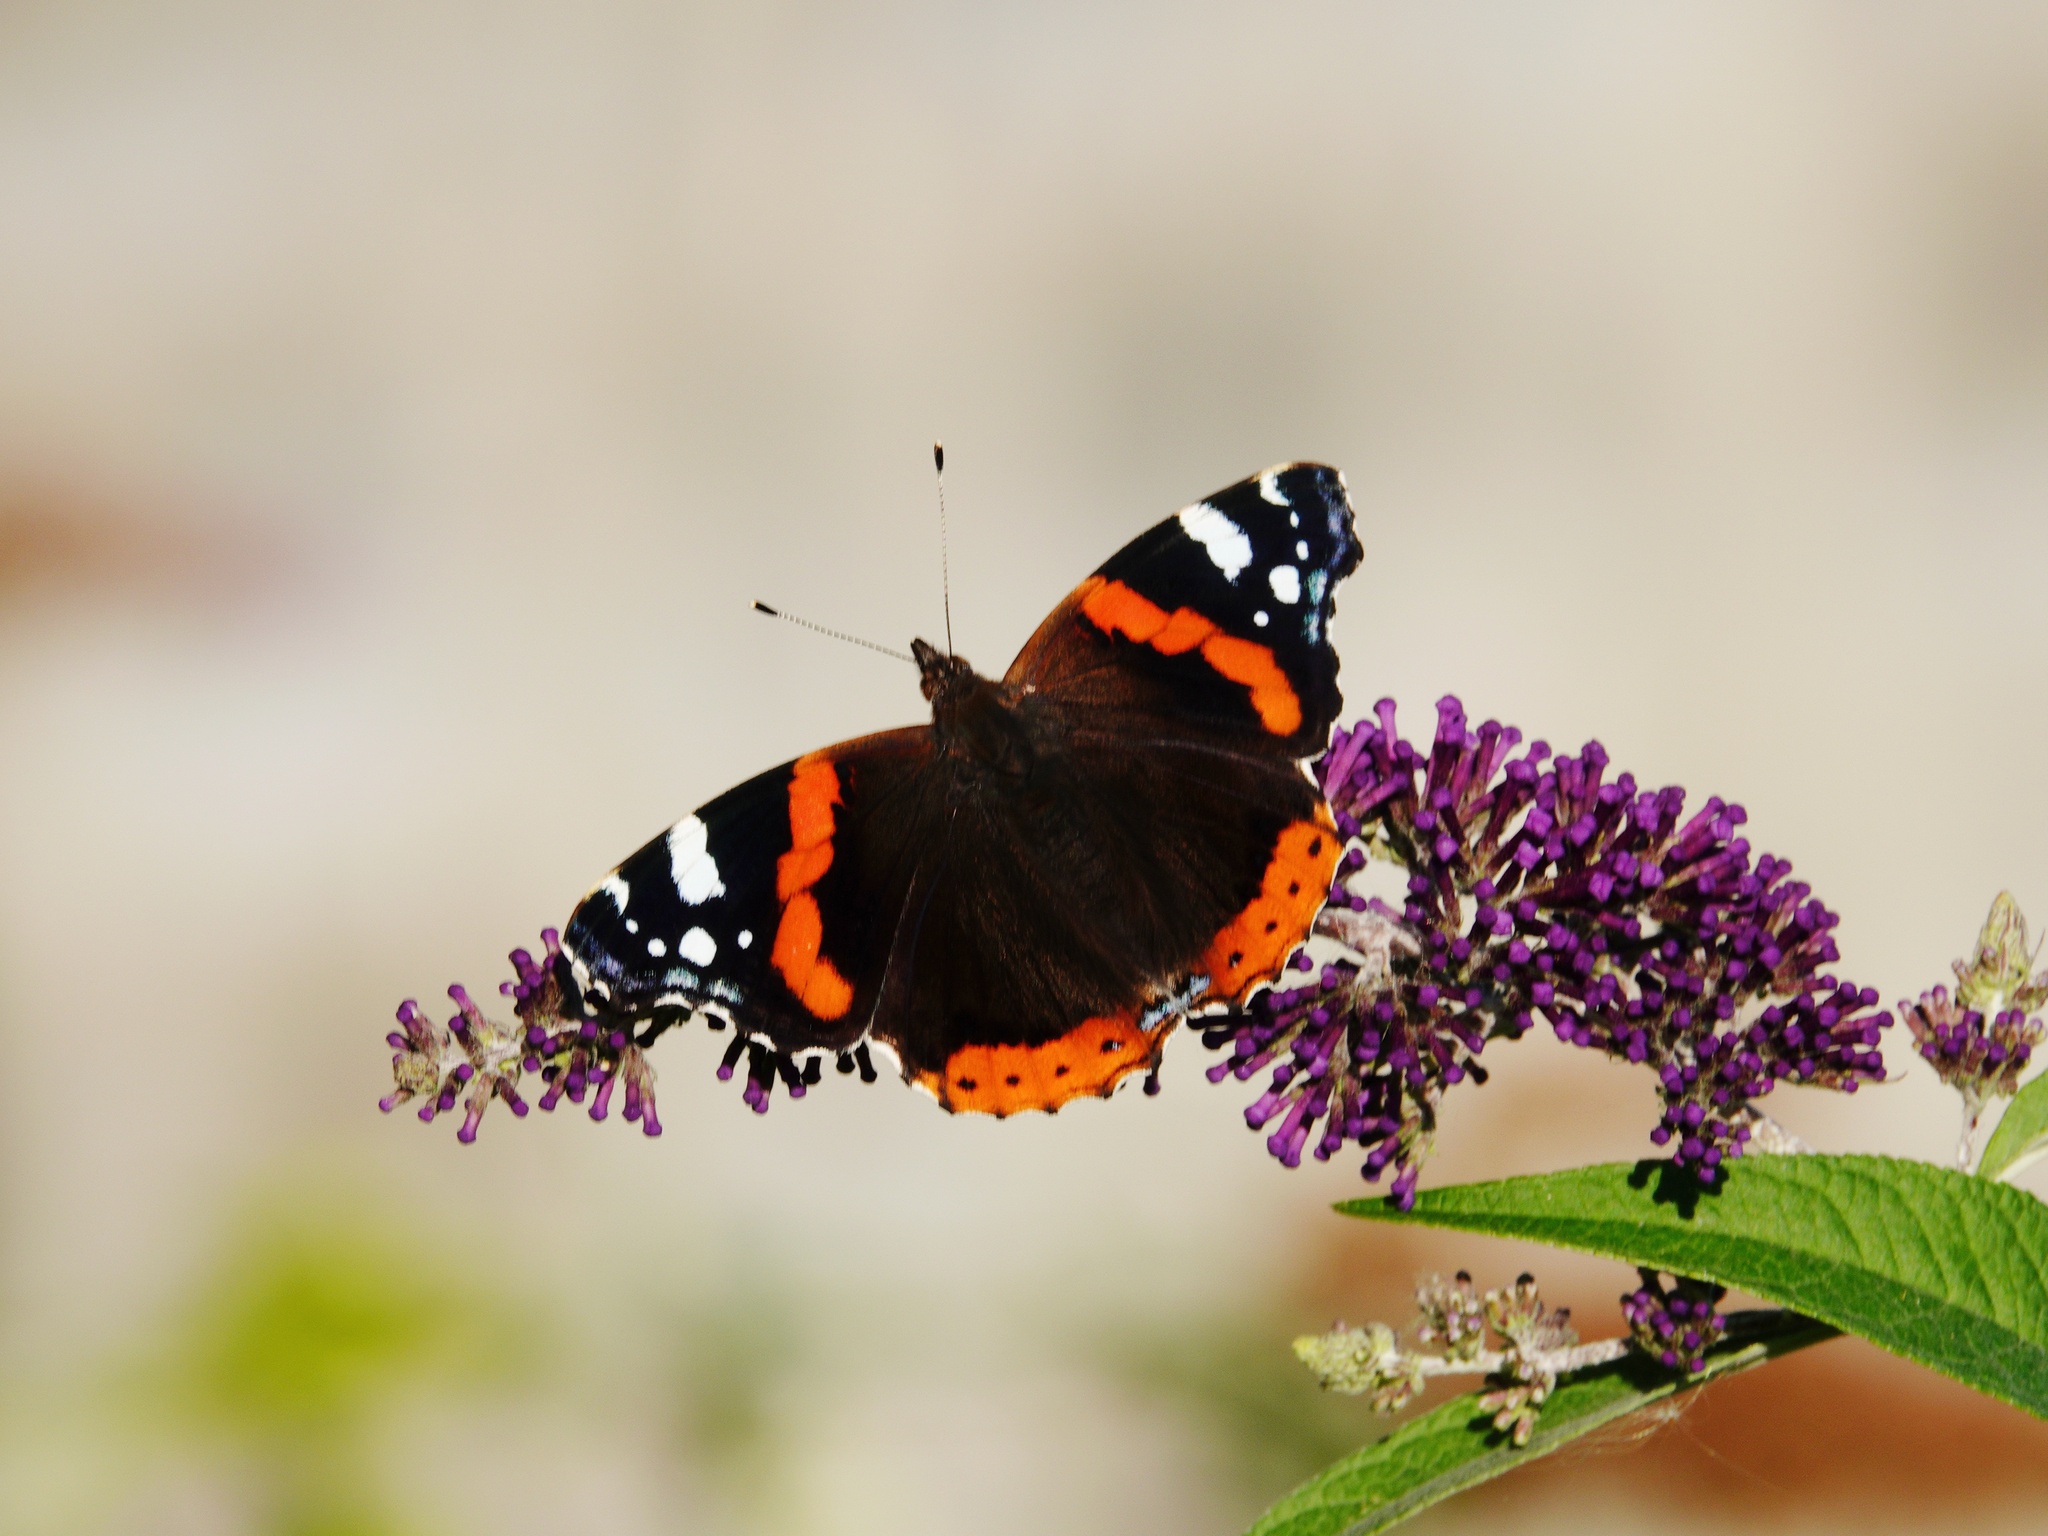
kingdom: Animalia
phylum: Arthropoda
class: Insecta
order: Lepidoptera
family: Nymphalidae
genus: Vanessa
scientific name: Vanessa atalanta
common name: Red admiral
